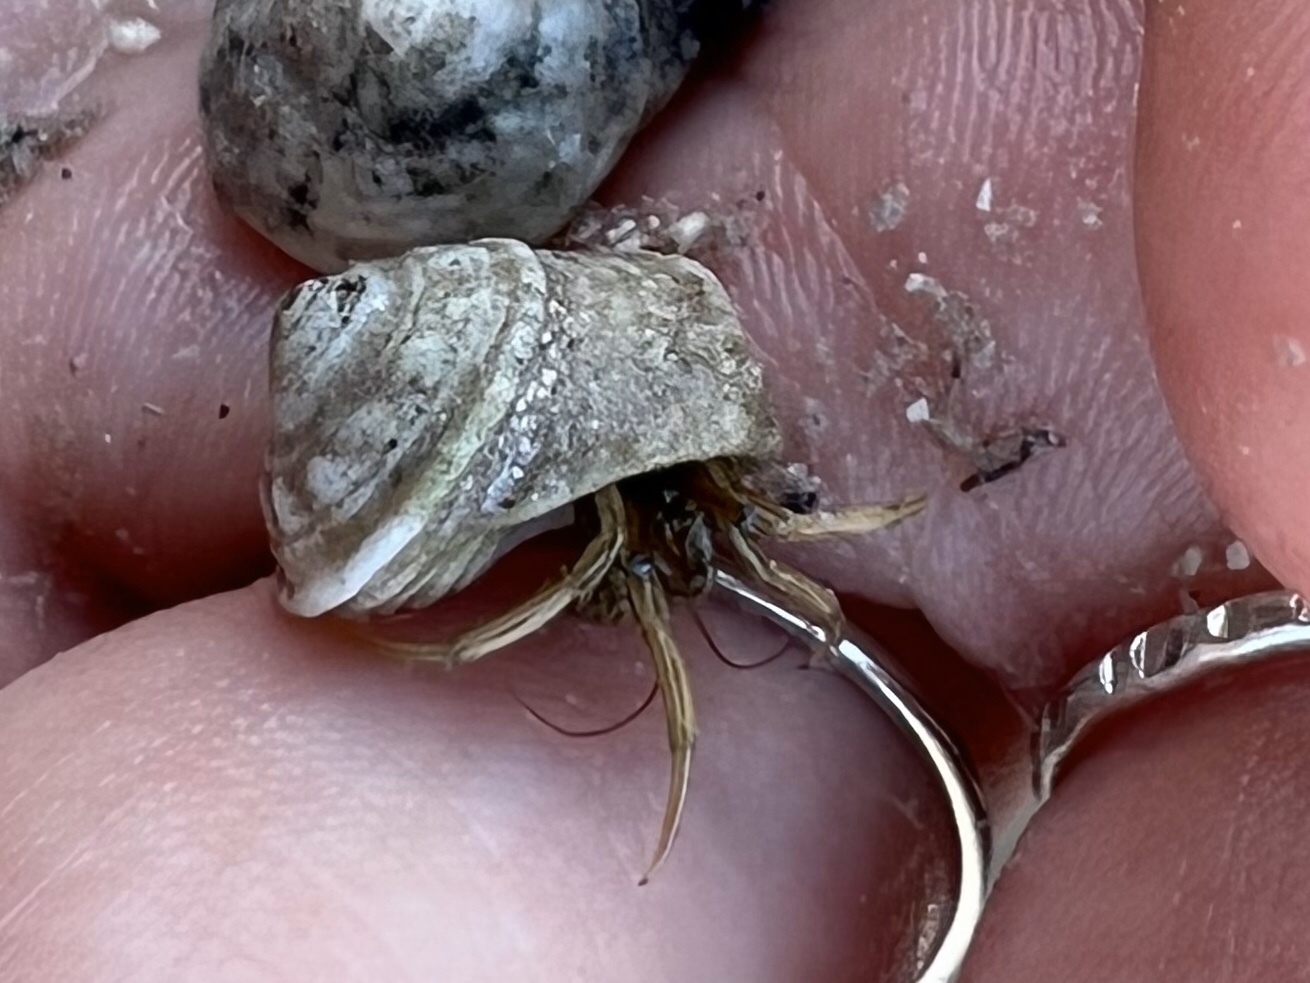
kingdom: Animalia
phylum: Arthropoda
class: Malacostraca
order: Decapoda
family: Diogenidae
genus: Clibanarius
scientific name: Clibanarius vittatus
